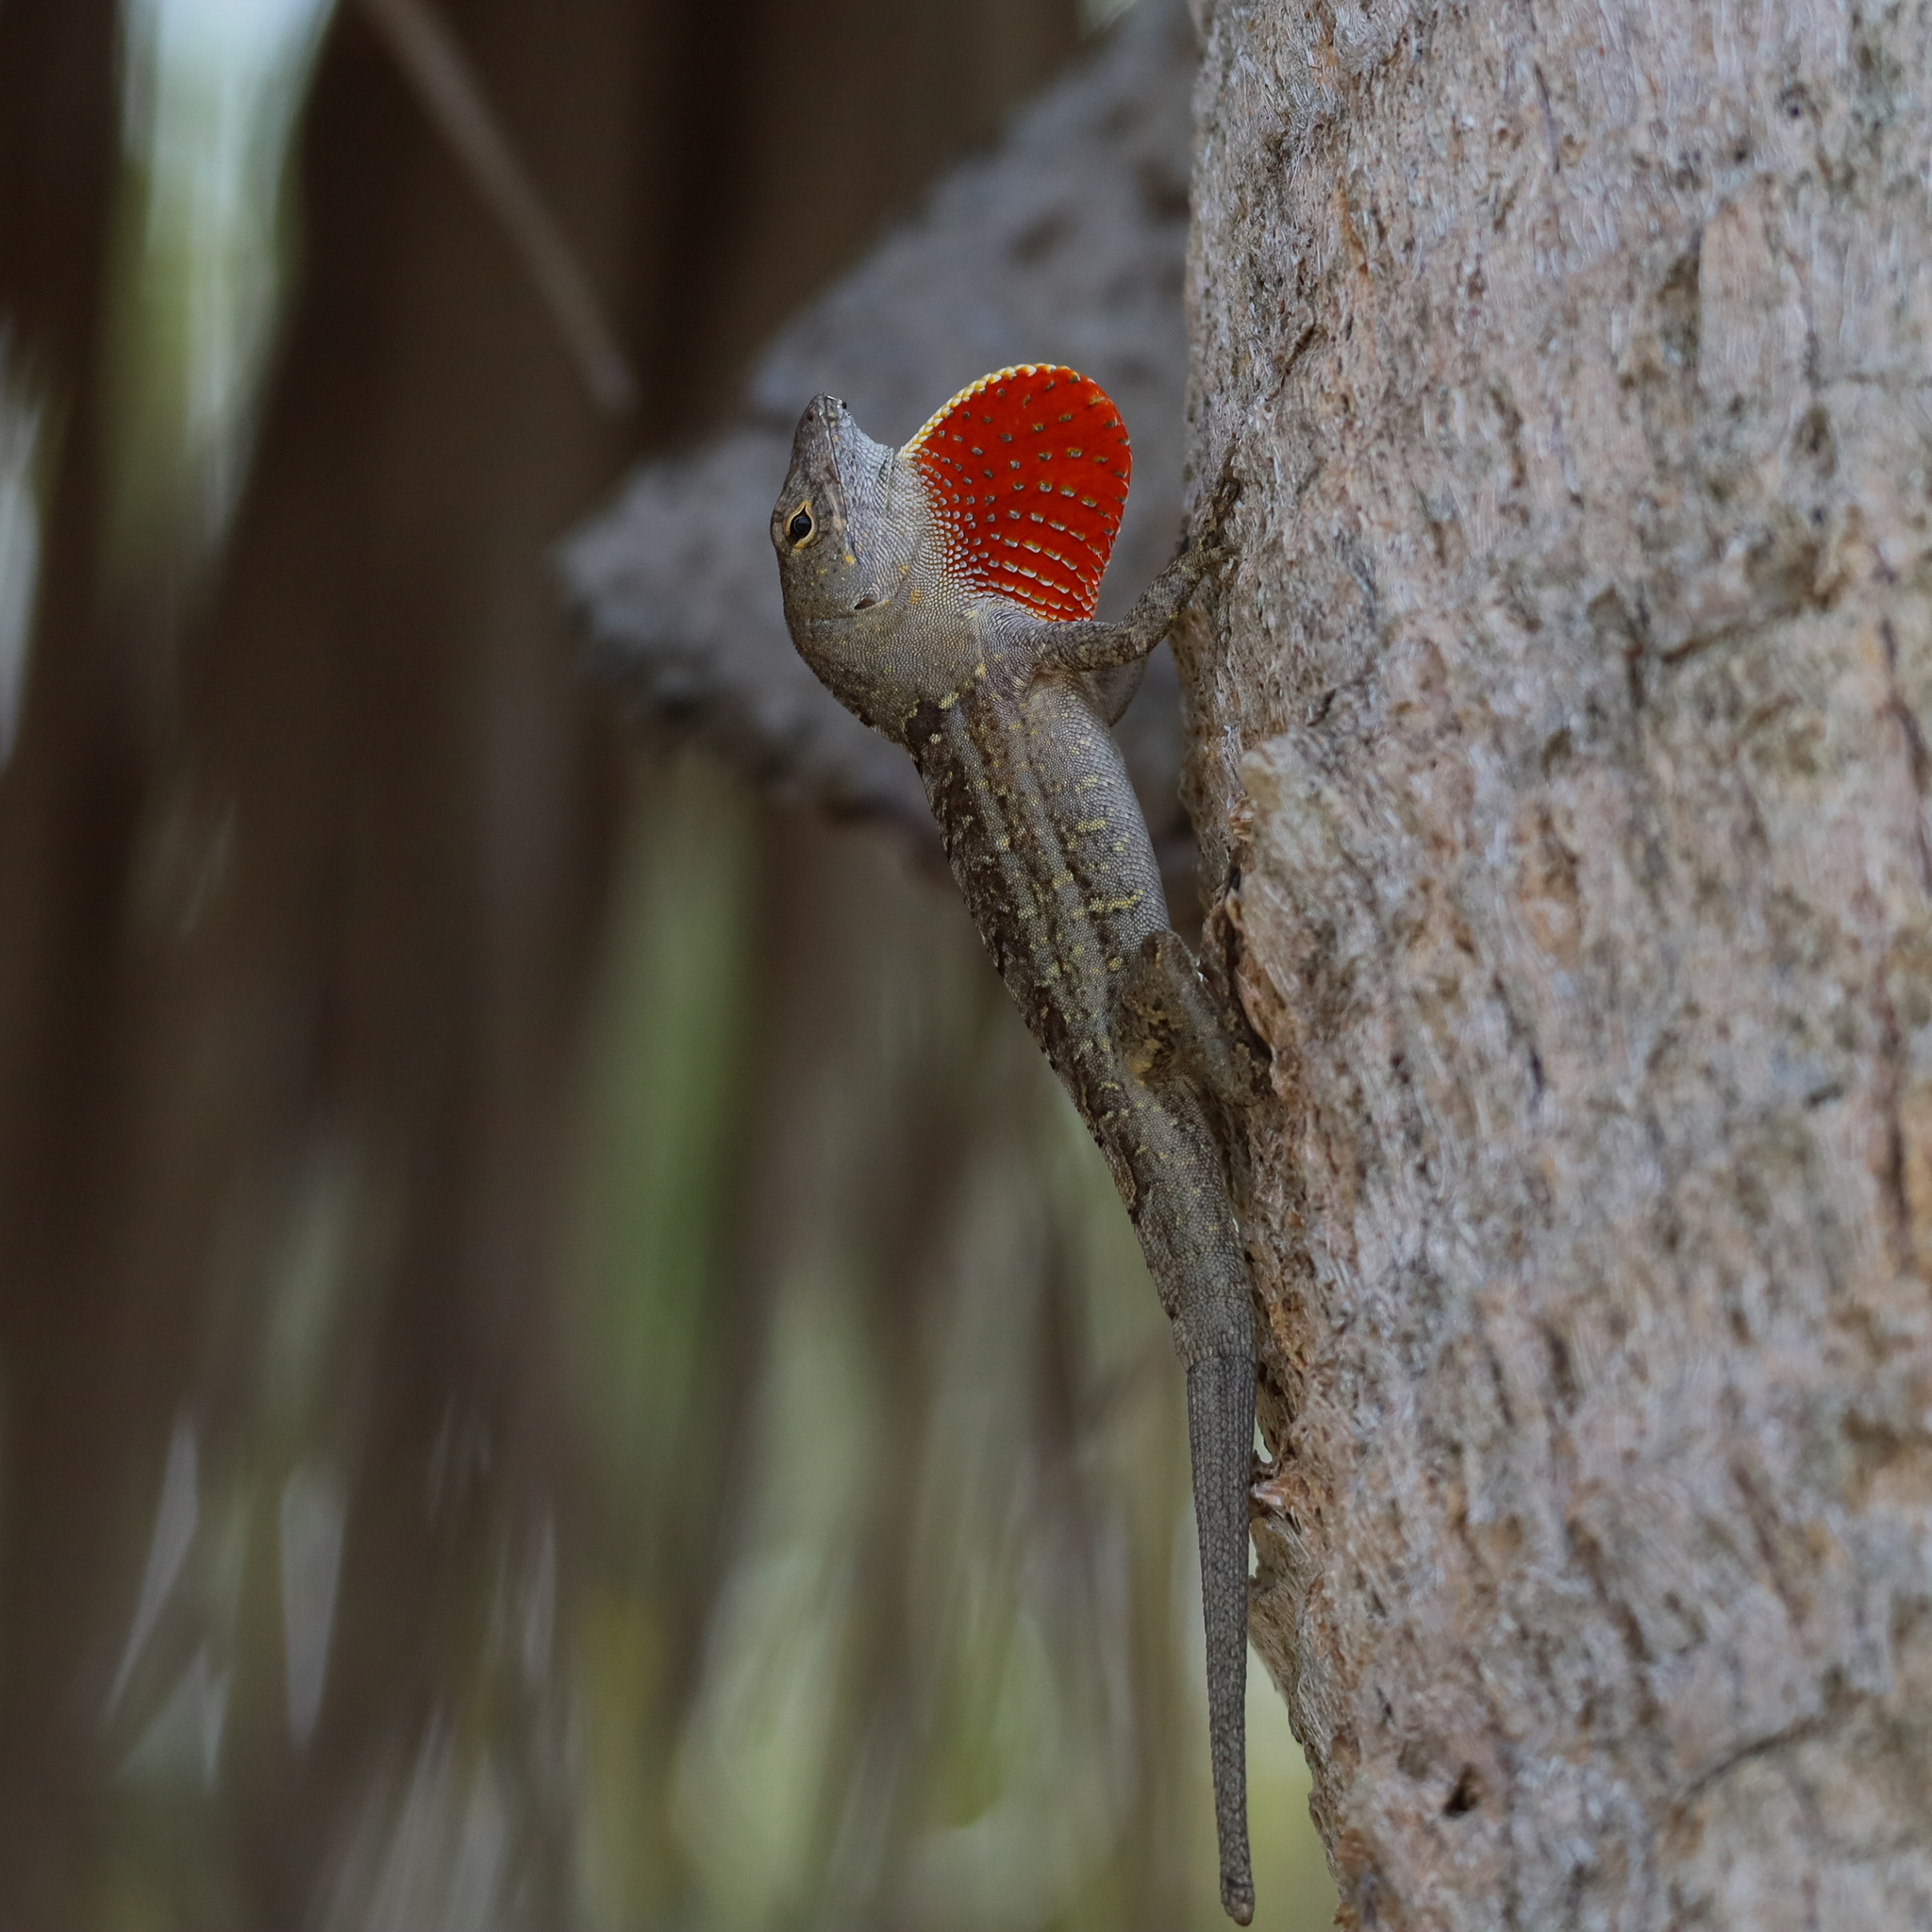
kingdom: Animalia
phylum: Chordata
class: Squamata
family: Dactyloidae
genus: Anolis
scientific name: Anolis sagrei
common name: Brown anole
